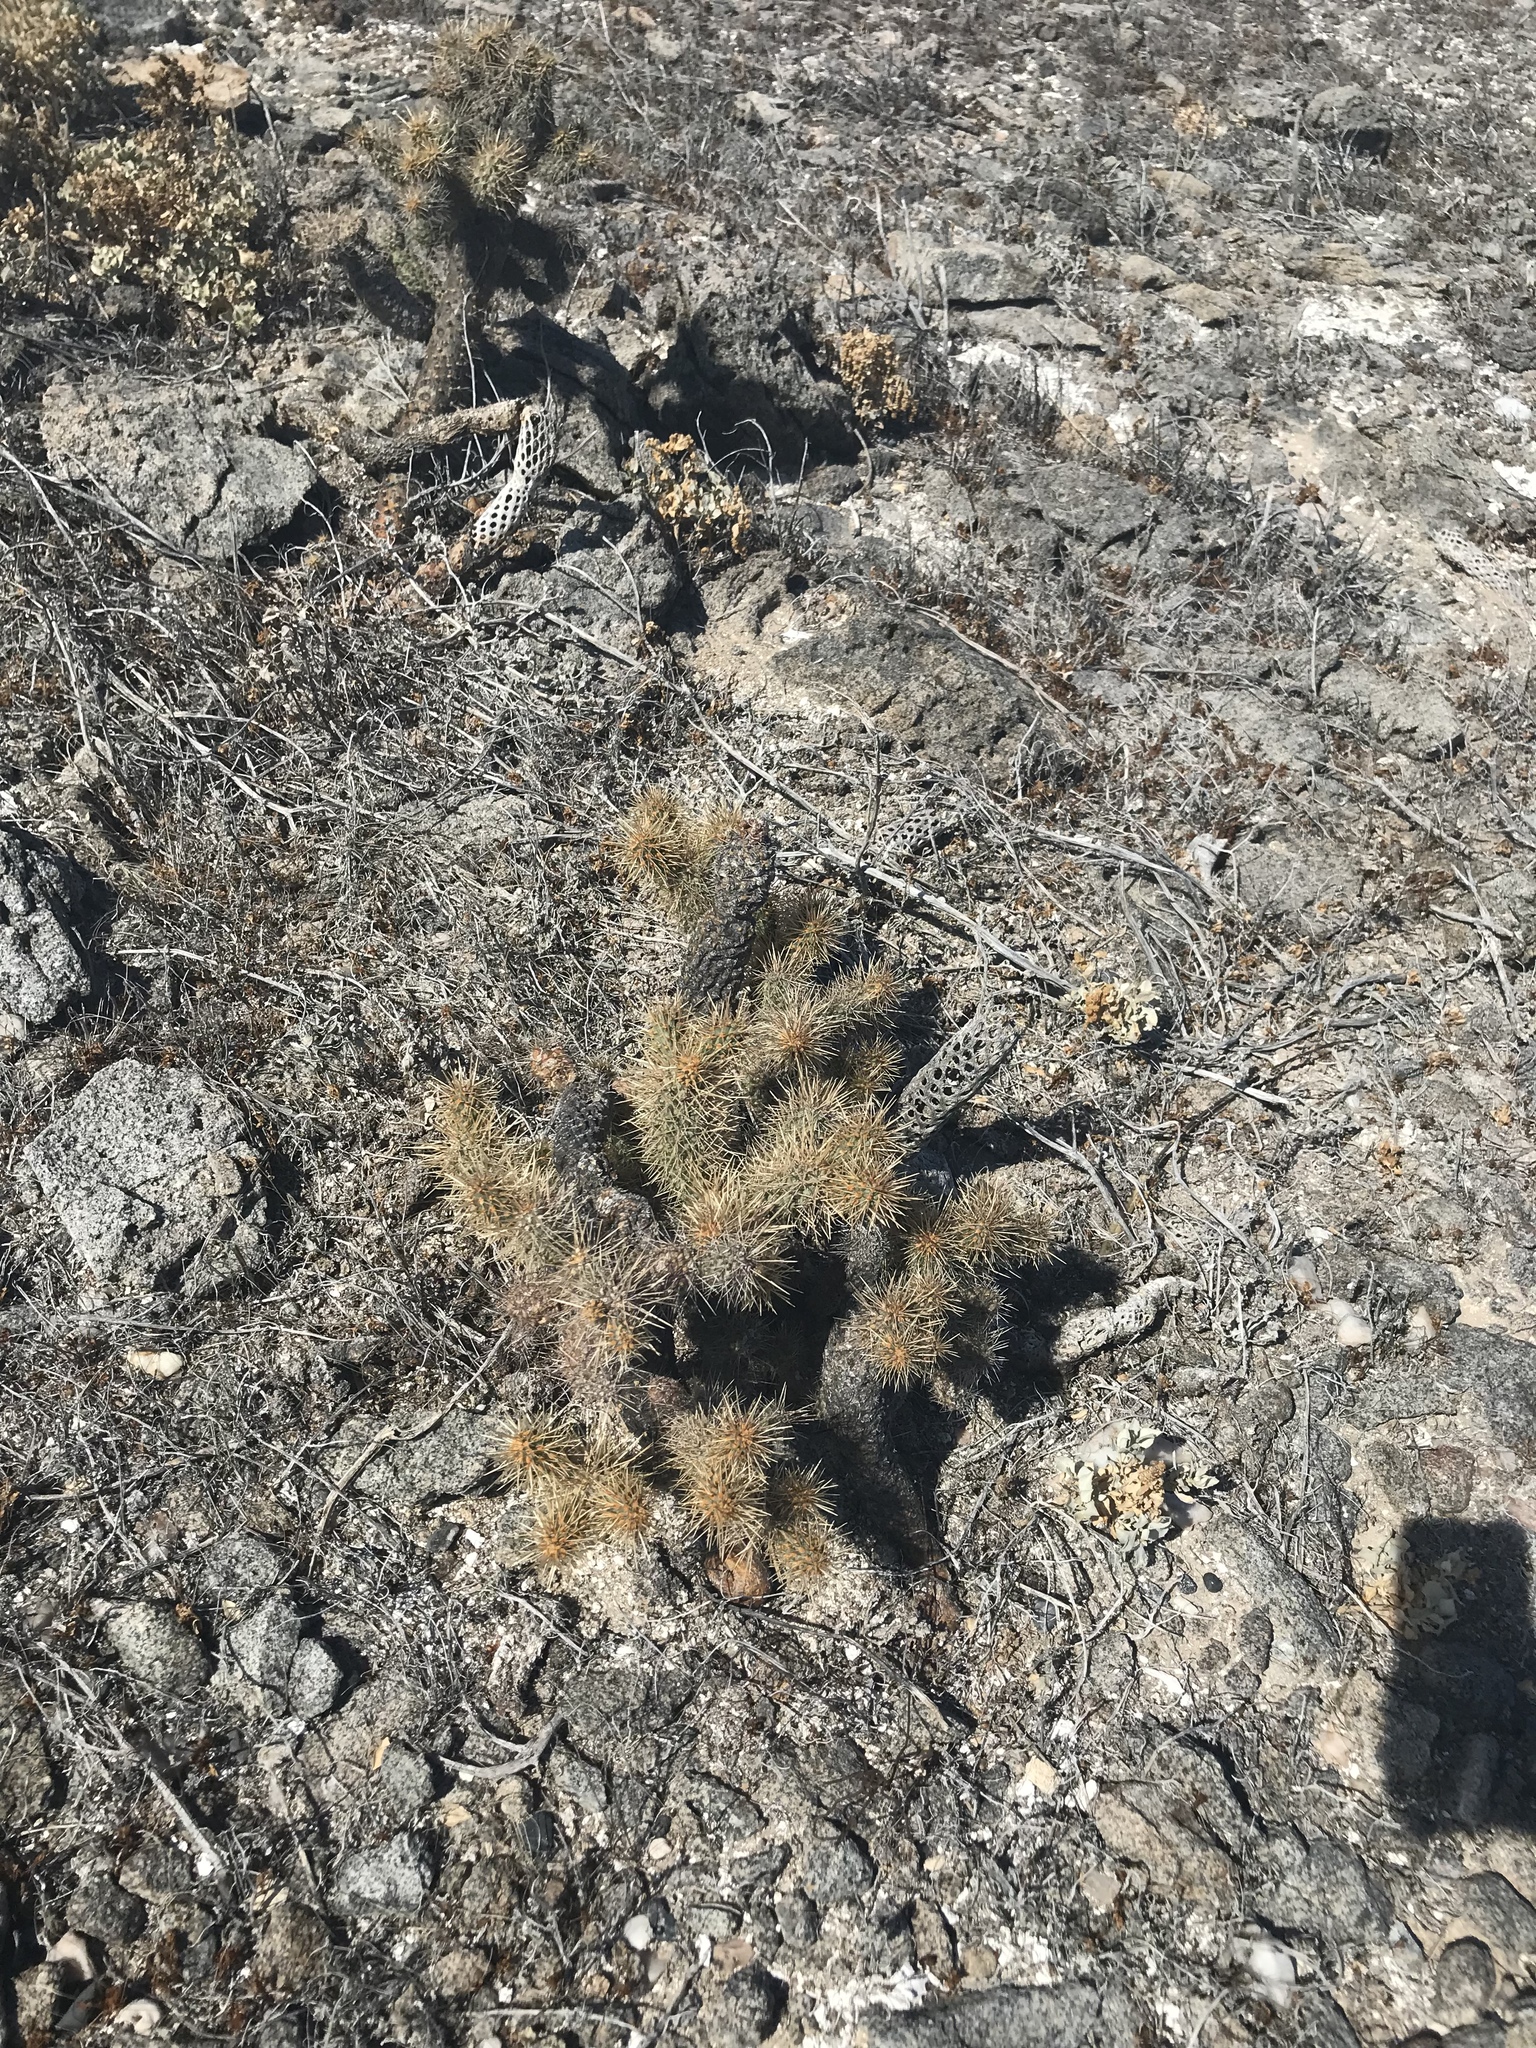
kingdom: Plantae
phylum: Tracheophyta
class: Magnoliopsida
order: Caryophyllales
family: Cactaceae
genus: Cylindropuntia
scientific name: Cylindropuntia fosbergii
